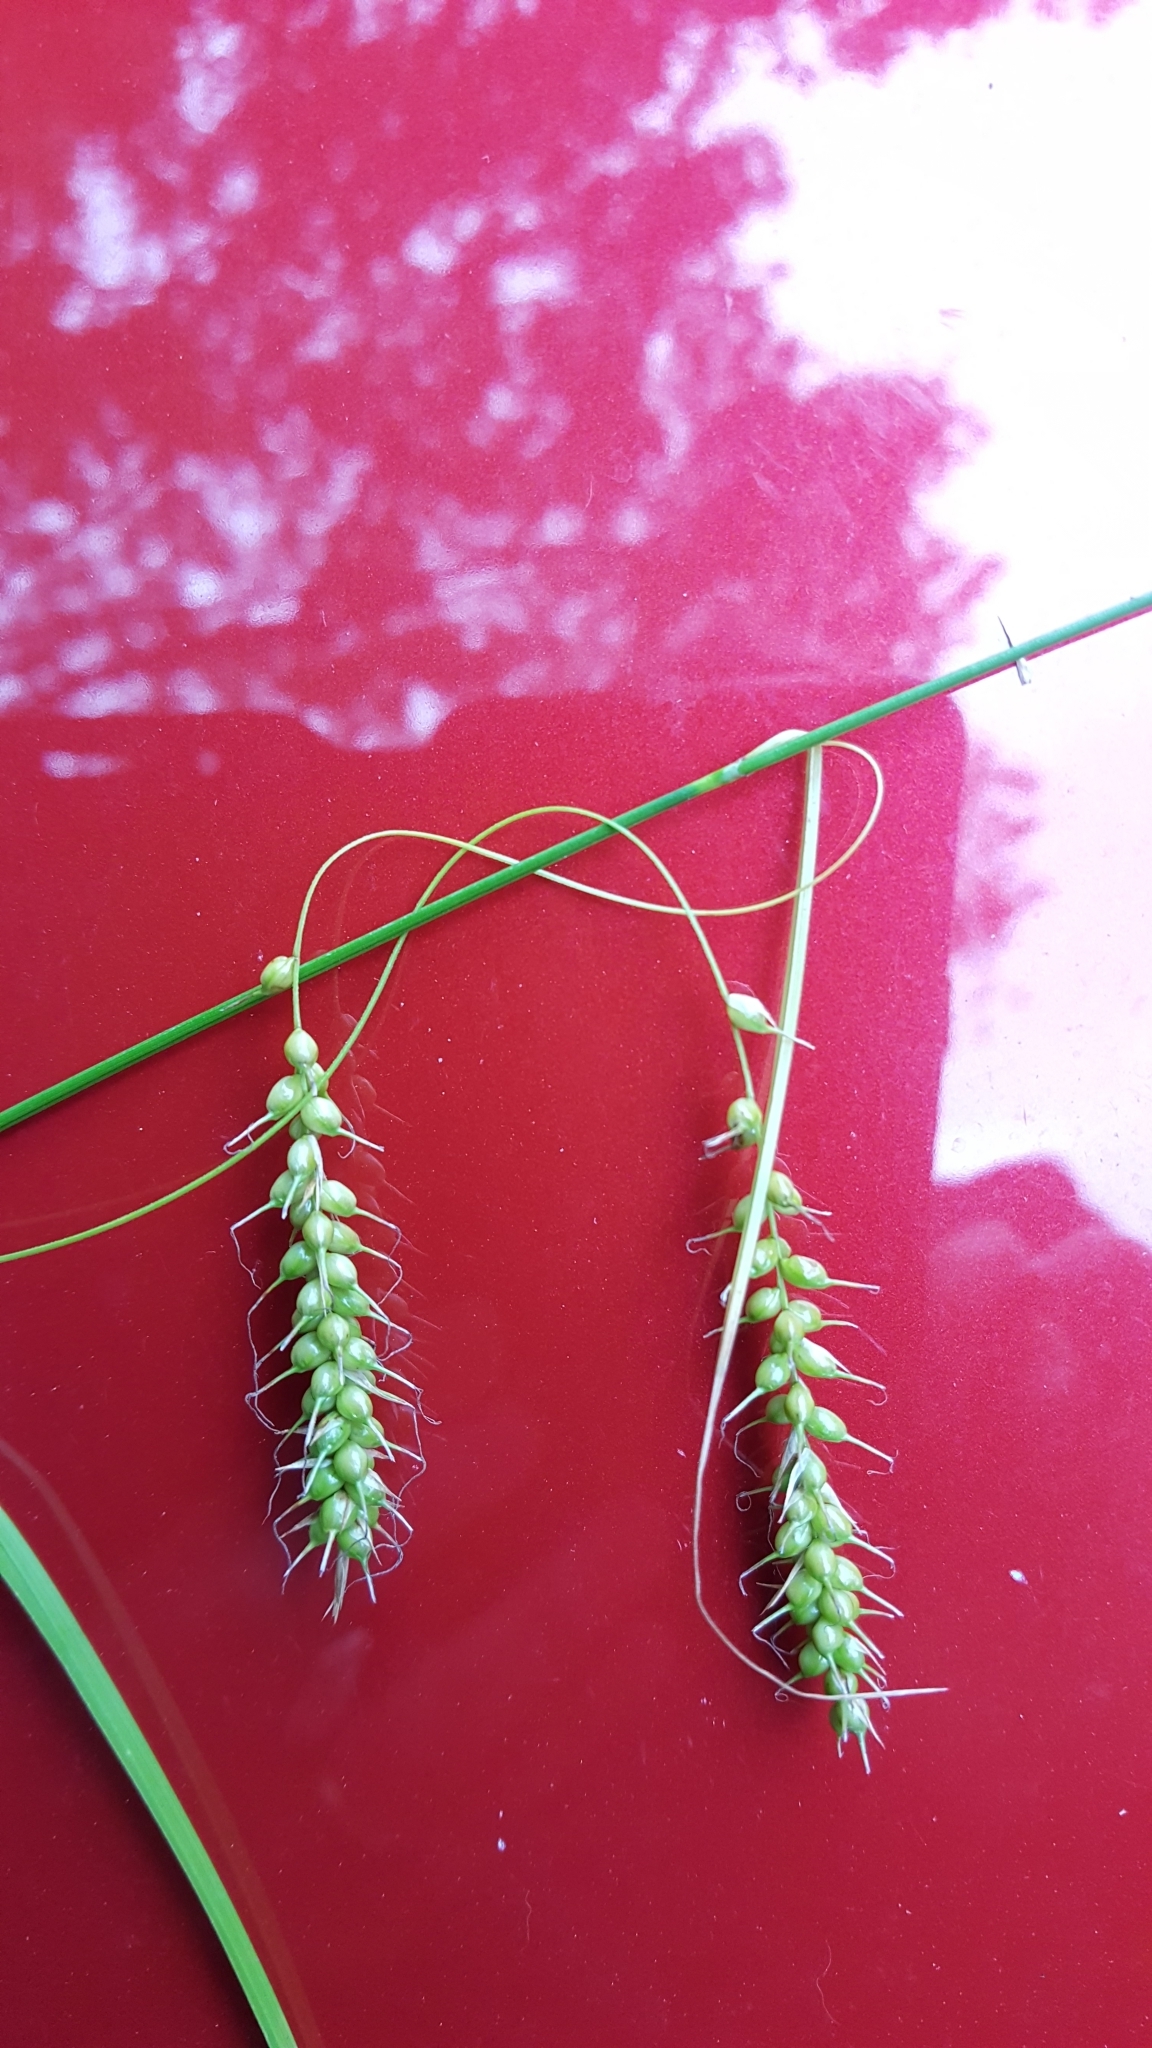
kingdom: Plantae
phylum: Tracheophyta
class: Liliopsida
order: Poales
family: Cyperaceae
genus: Carex
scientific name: Carex sprengelii
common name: Long-beaked sedge
